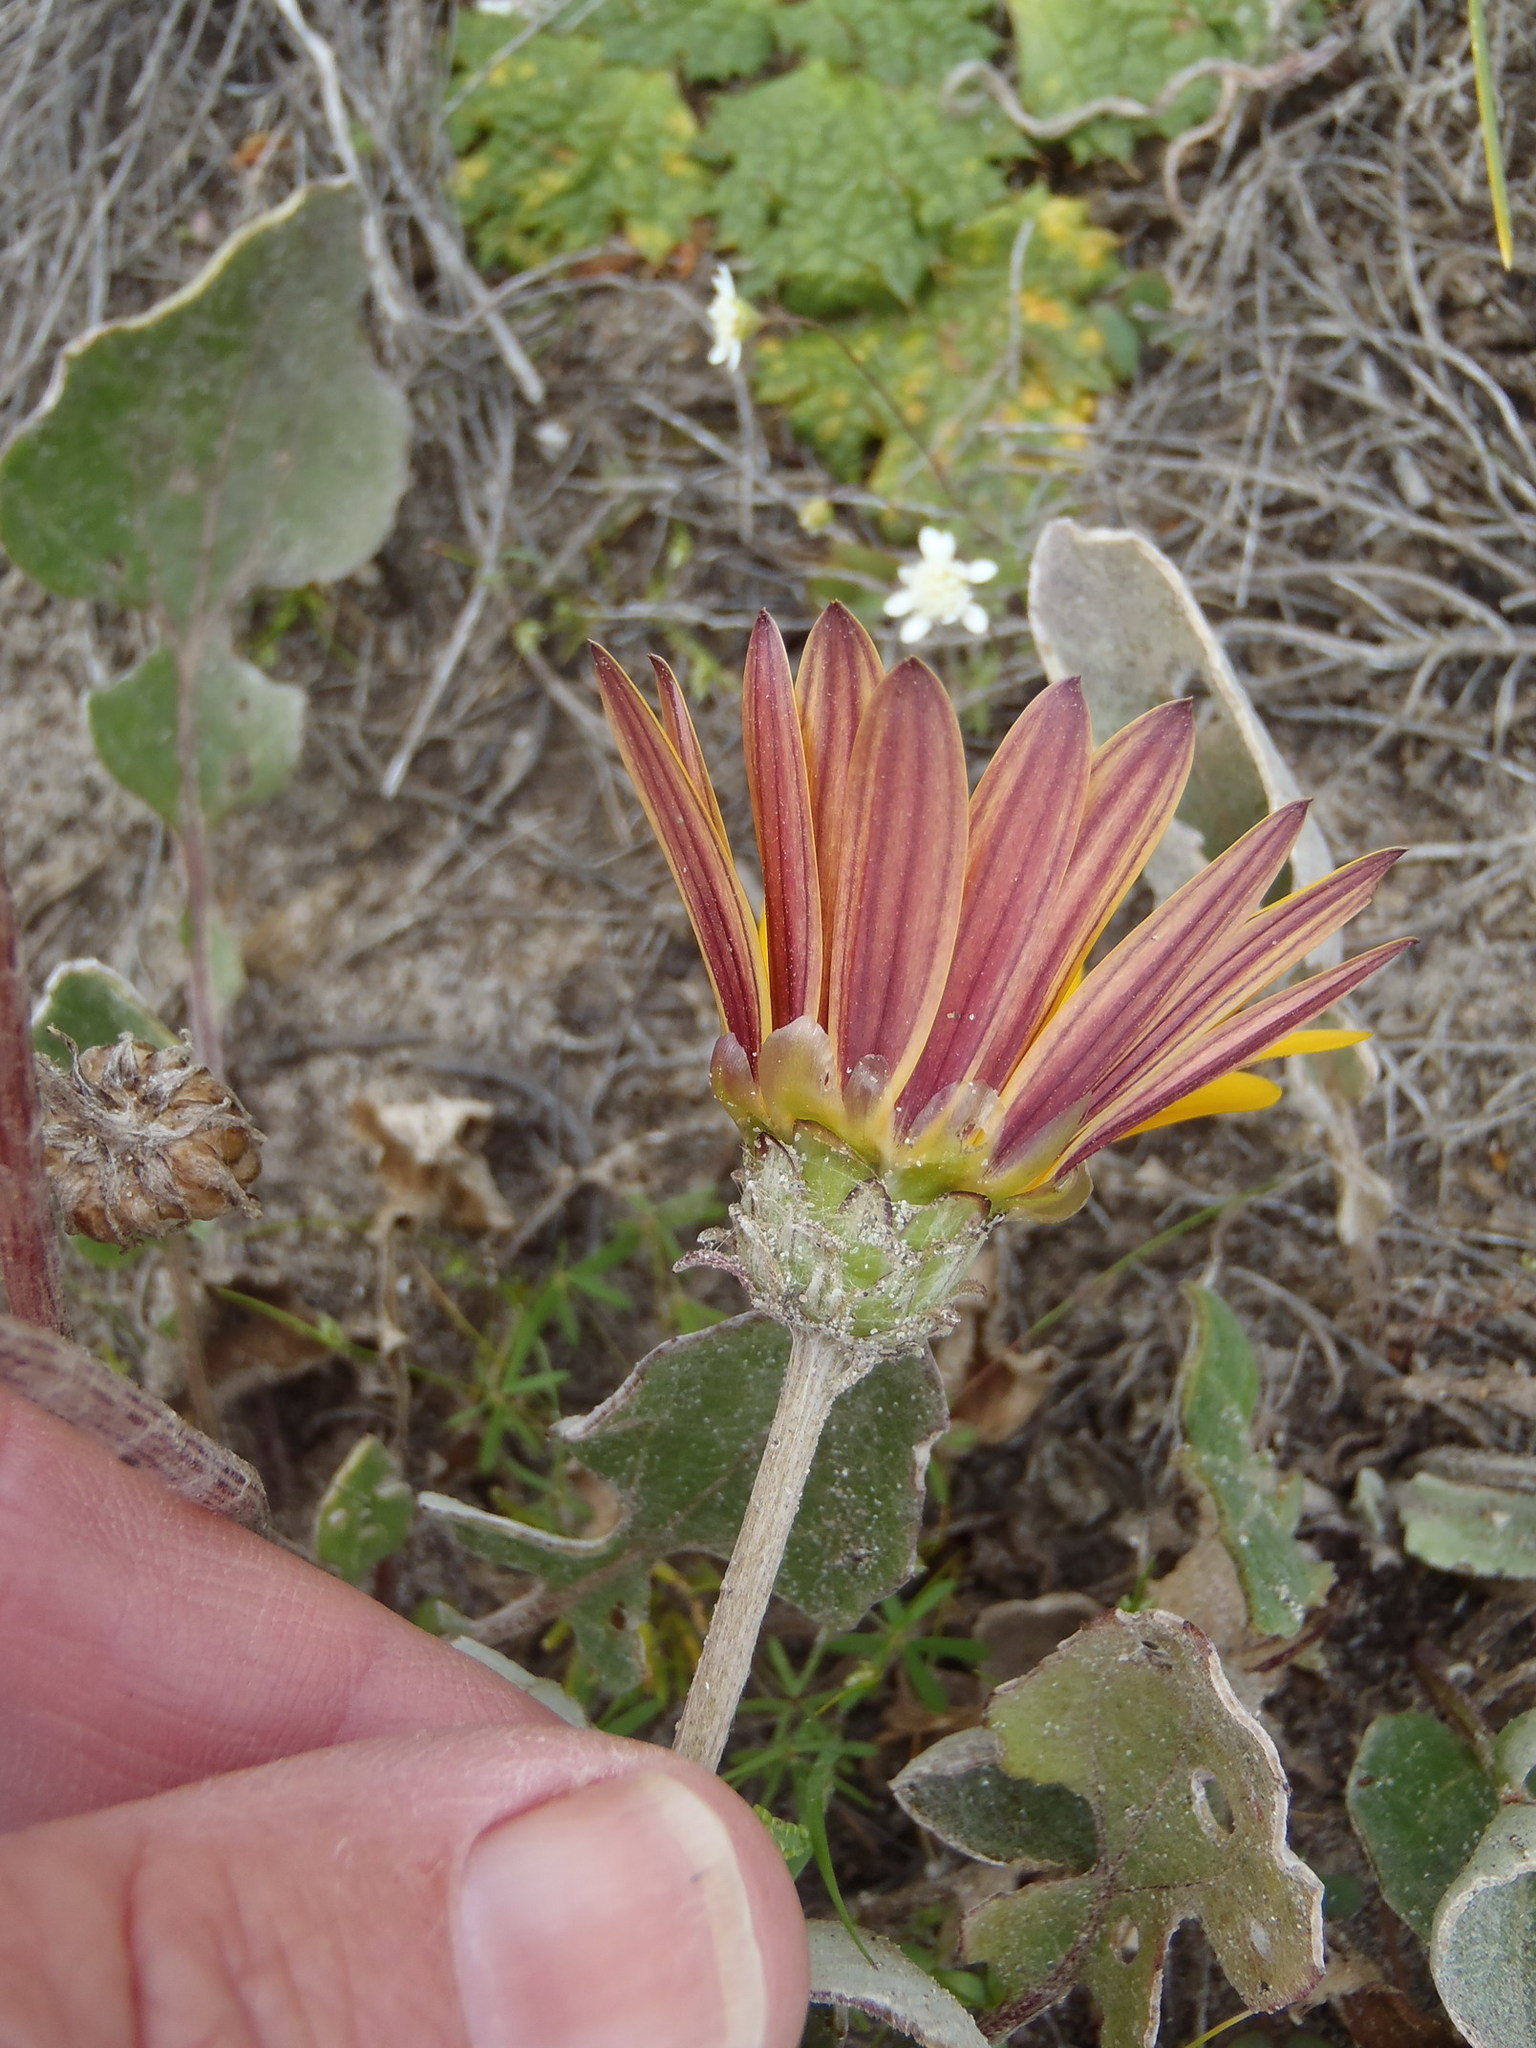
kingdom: Plantae
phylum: Tracheophyta
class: Magnoliopsida
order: Asterales
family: Asteraceae
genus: Arctotis
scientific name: Arctotis acaulis
